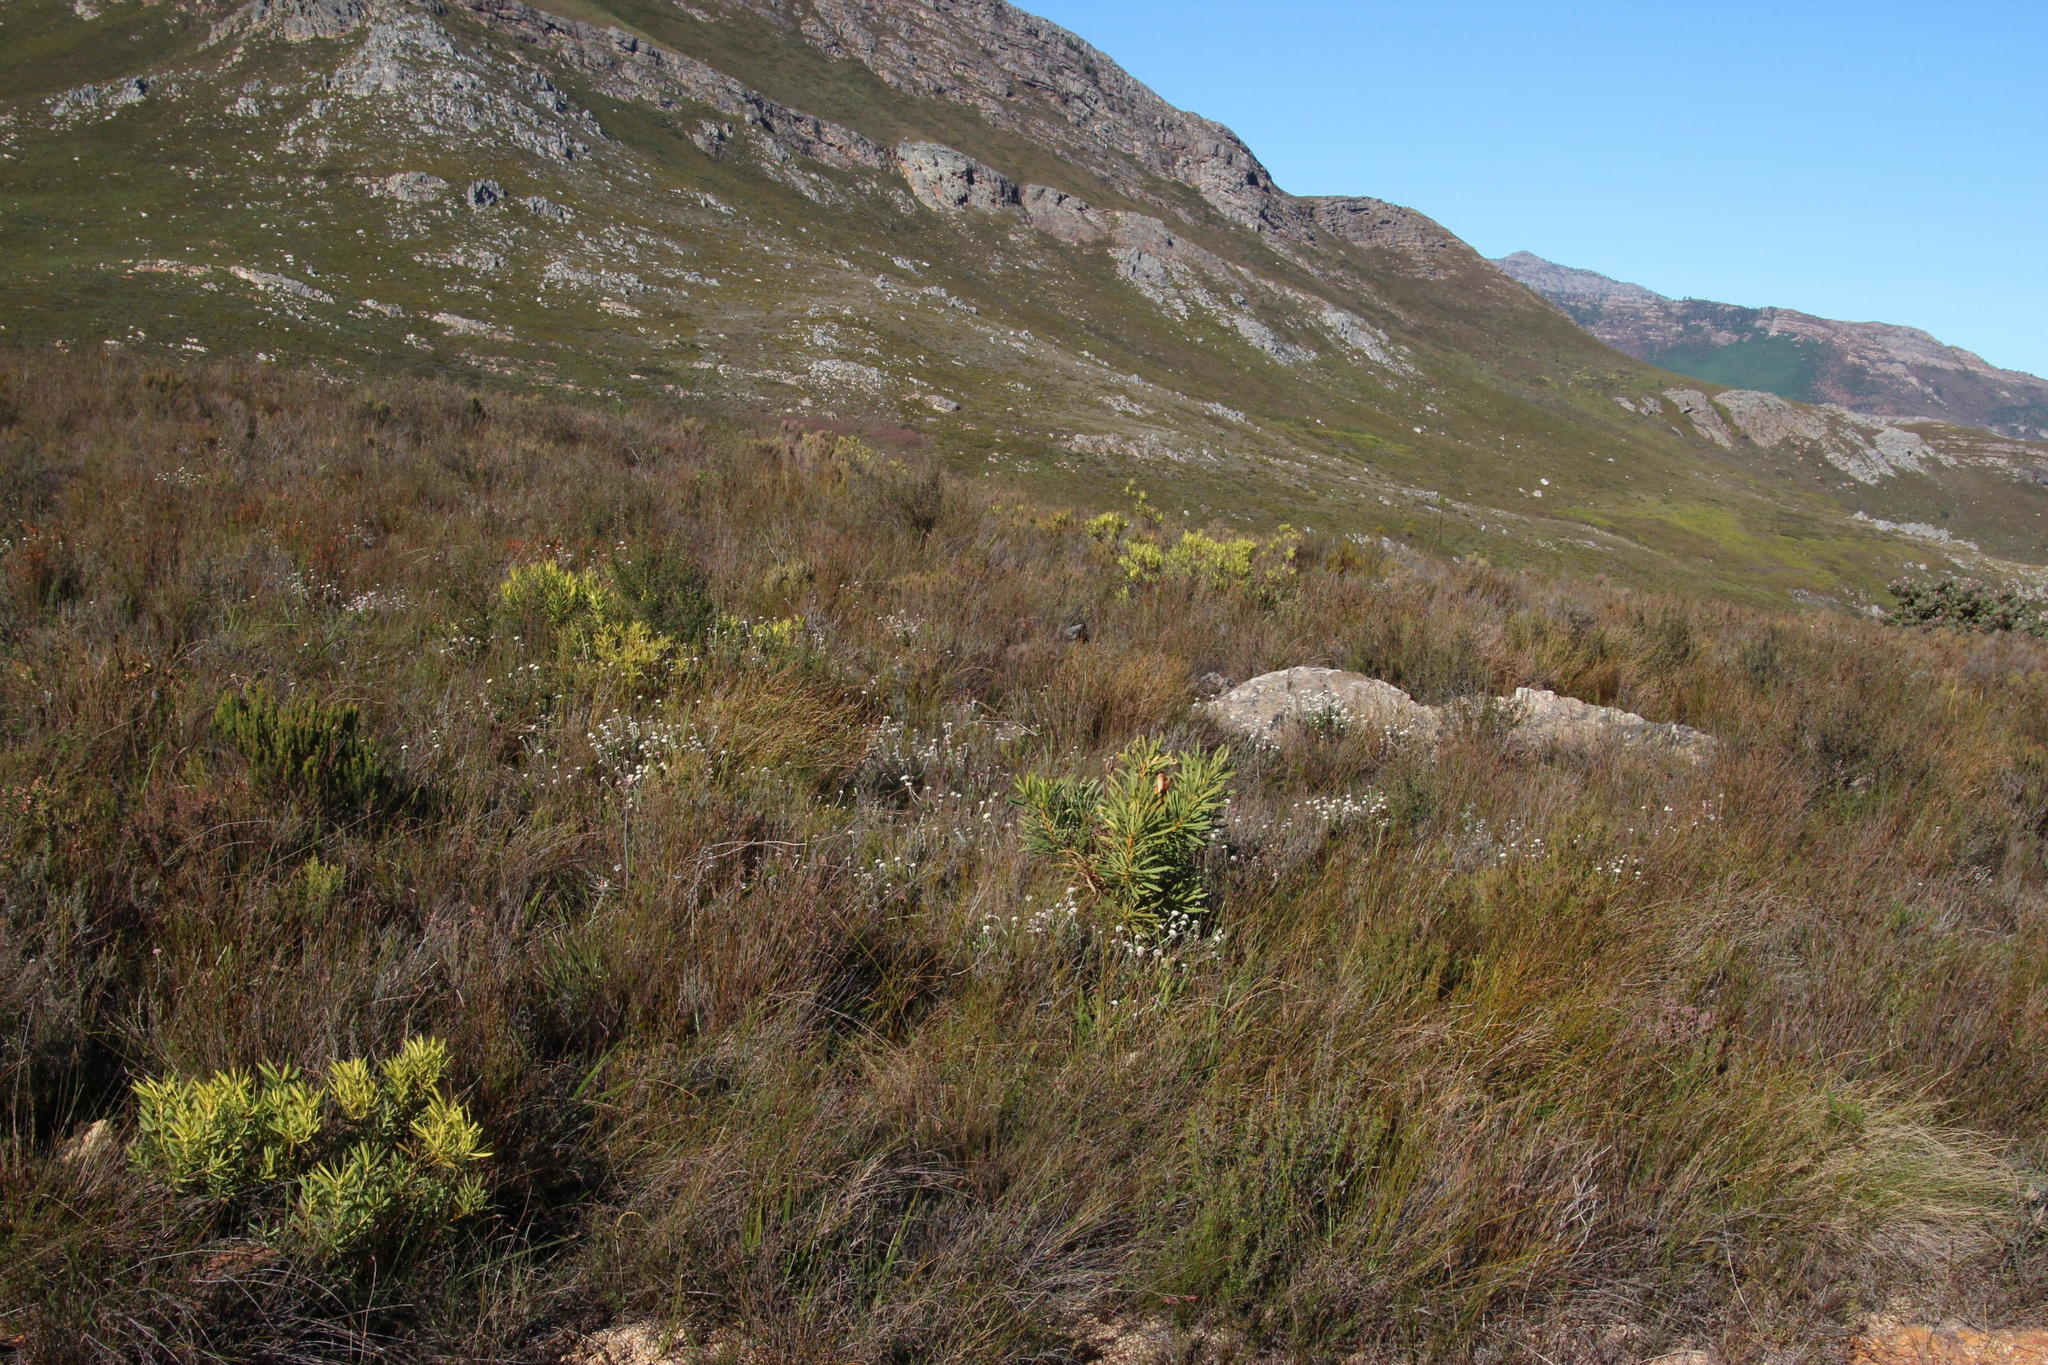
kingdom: Plantae
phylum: Tracheophyta
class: Magnoliopsida
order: Proteales
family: Proteaceae
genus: Protea
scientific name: Protea repens
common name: Sugarbush
